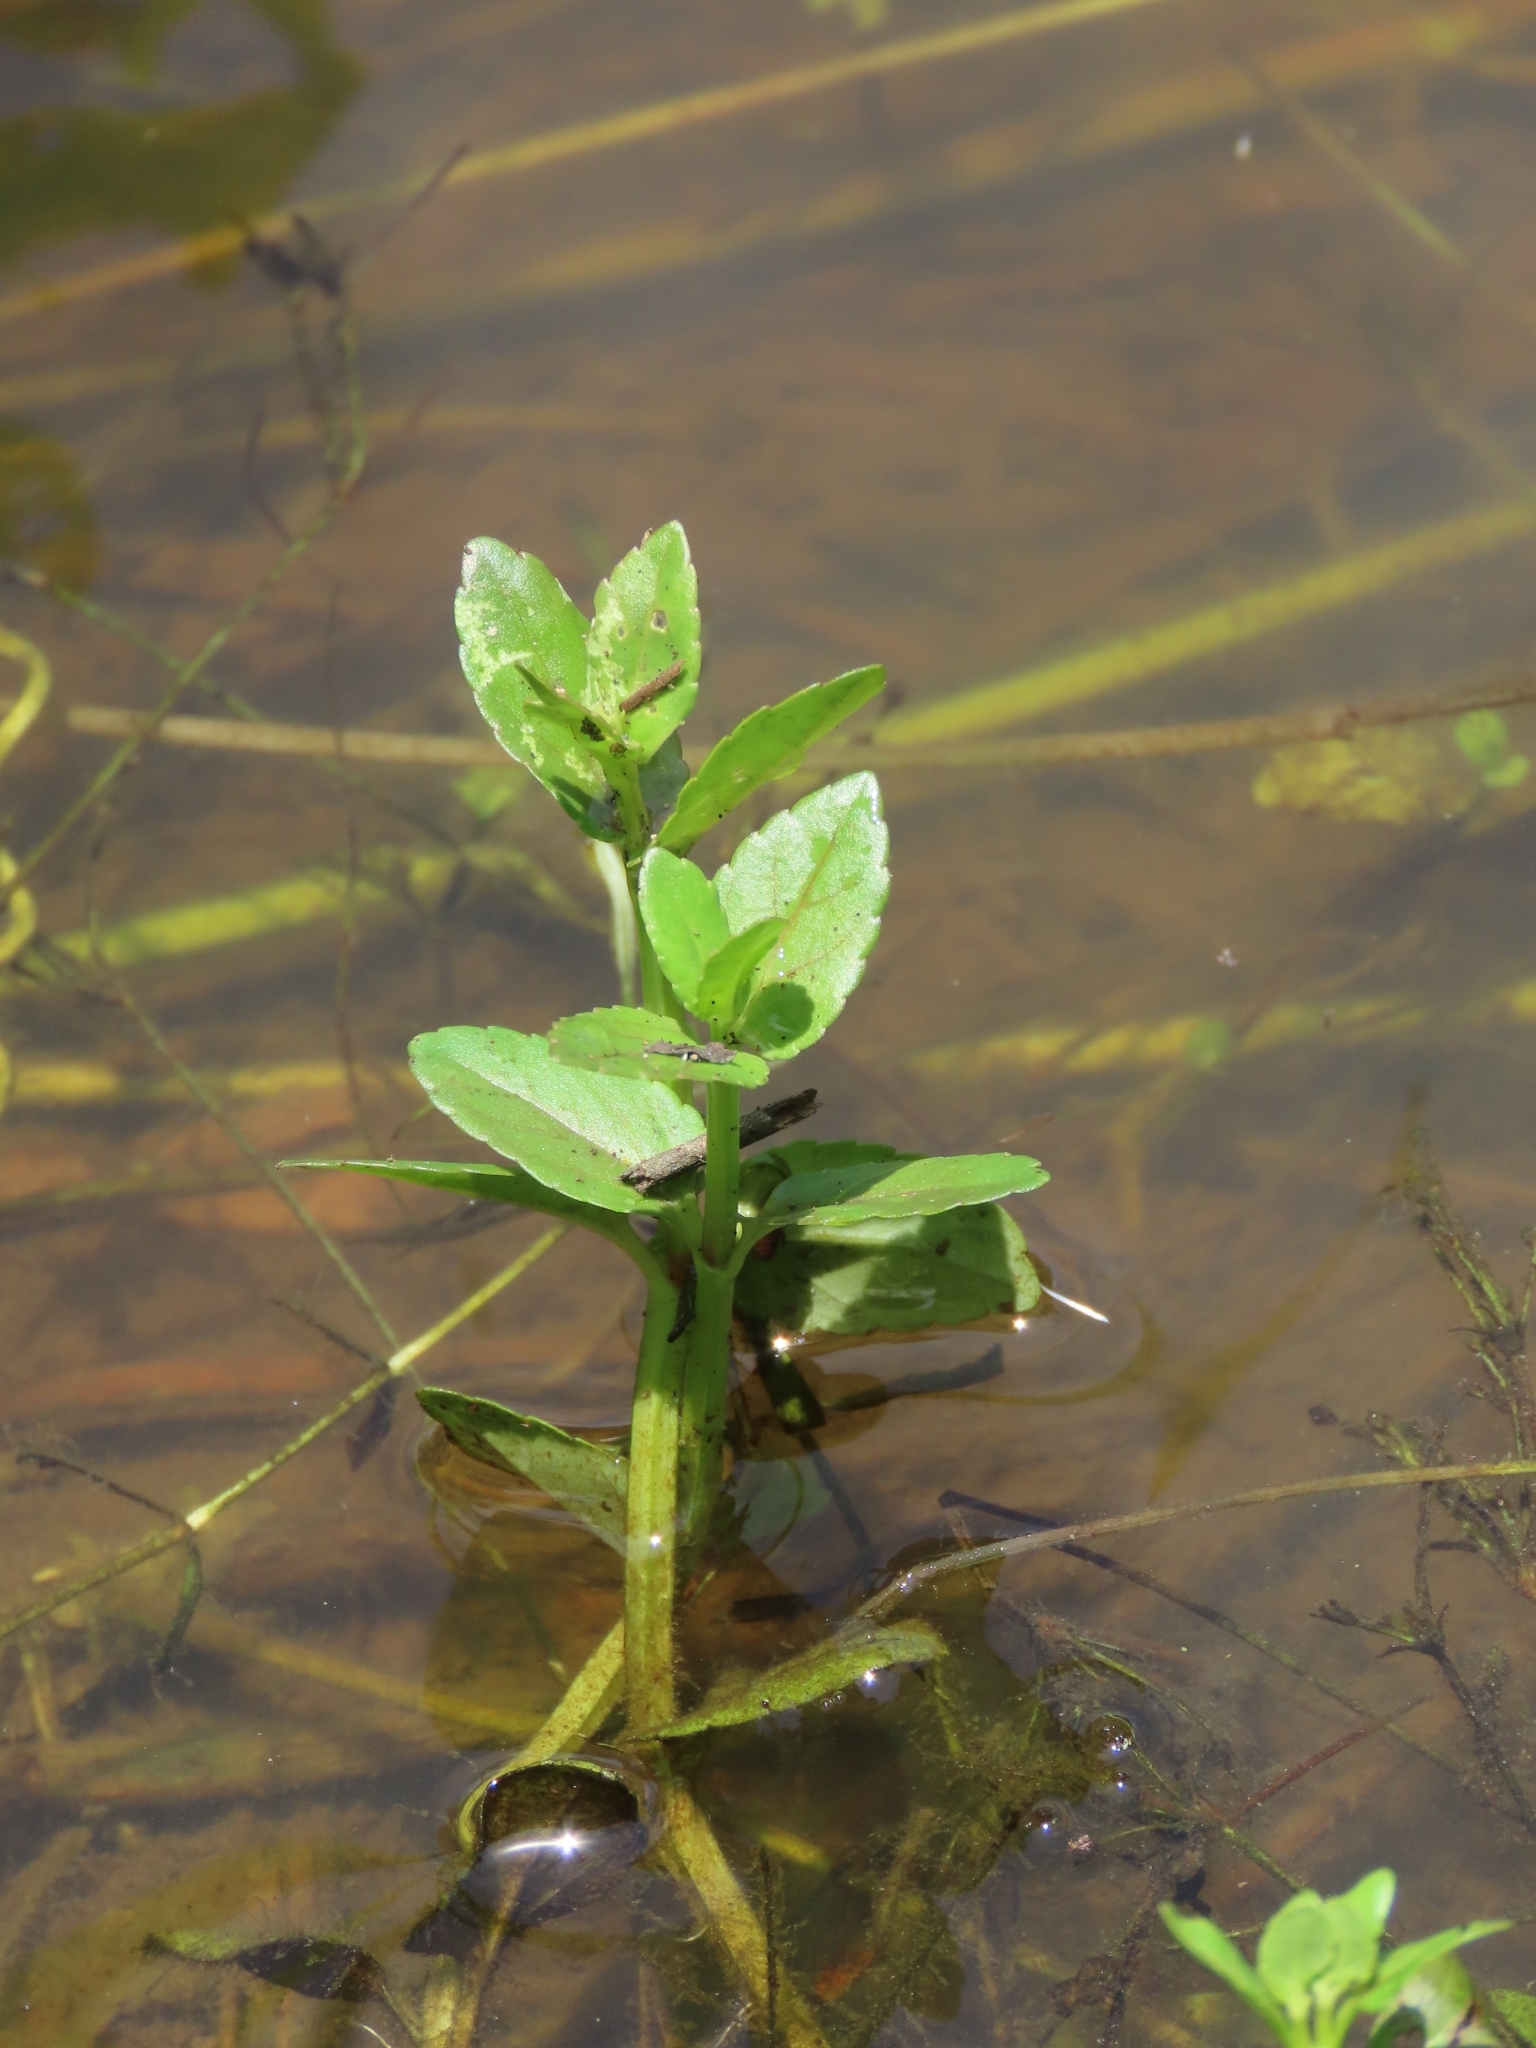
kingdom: Plantae
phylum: Tracheophyta
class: Magnoliopsida
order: Lamiales
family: Linderniaceae
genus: Torenia
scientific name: Torenia anagallis
